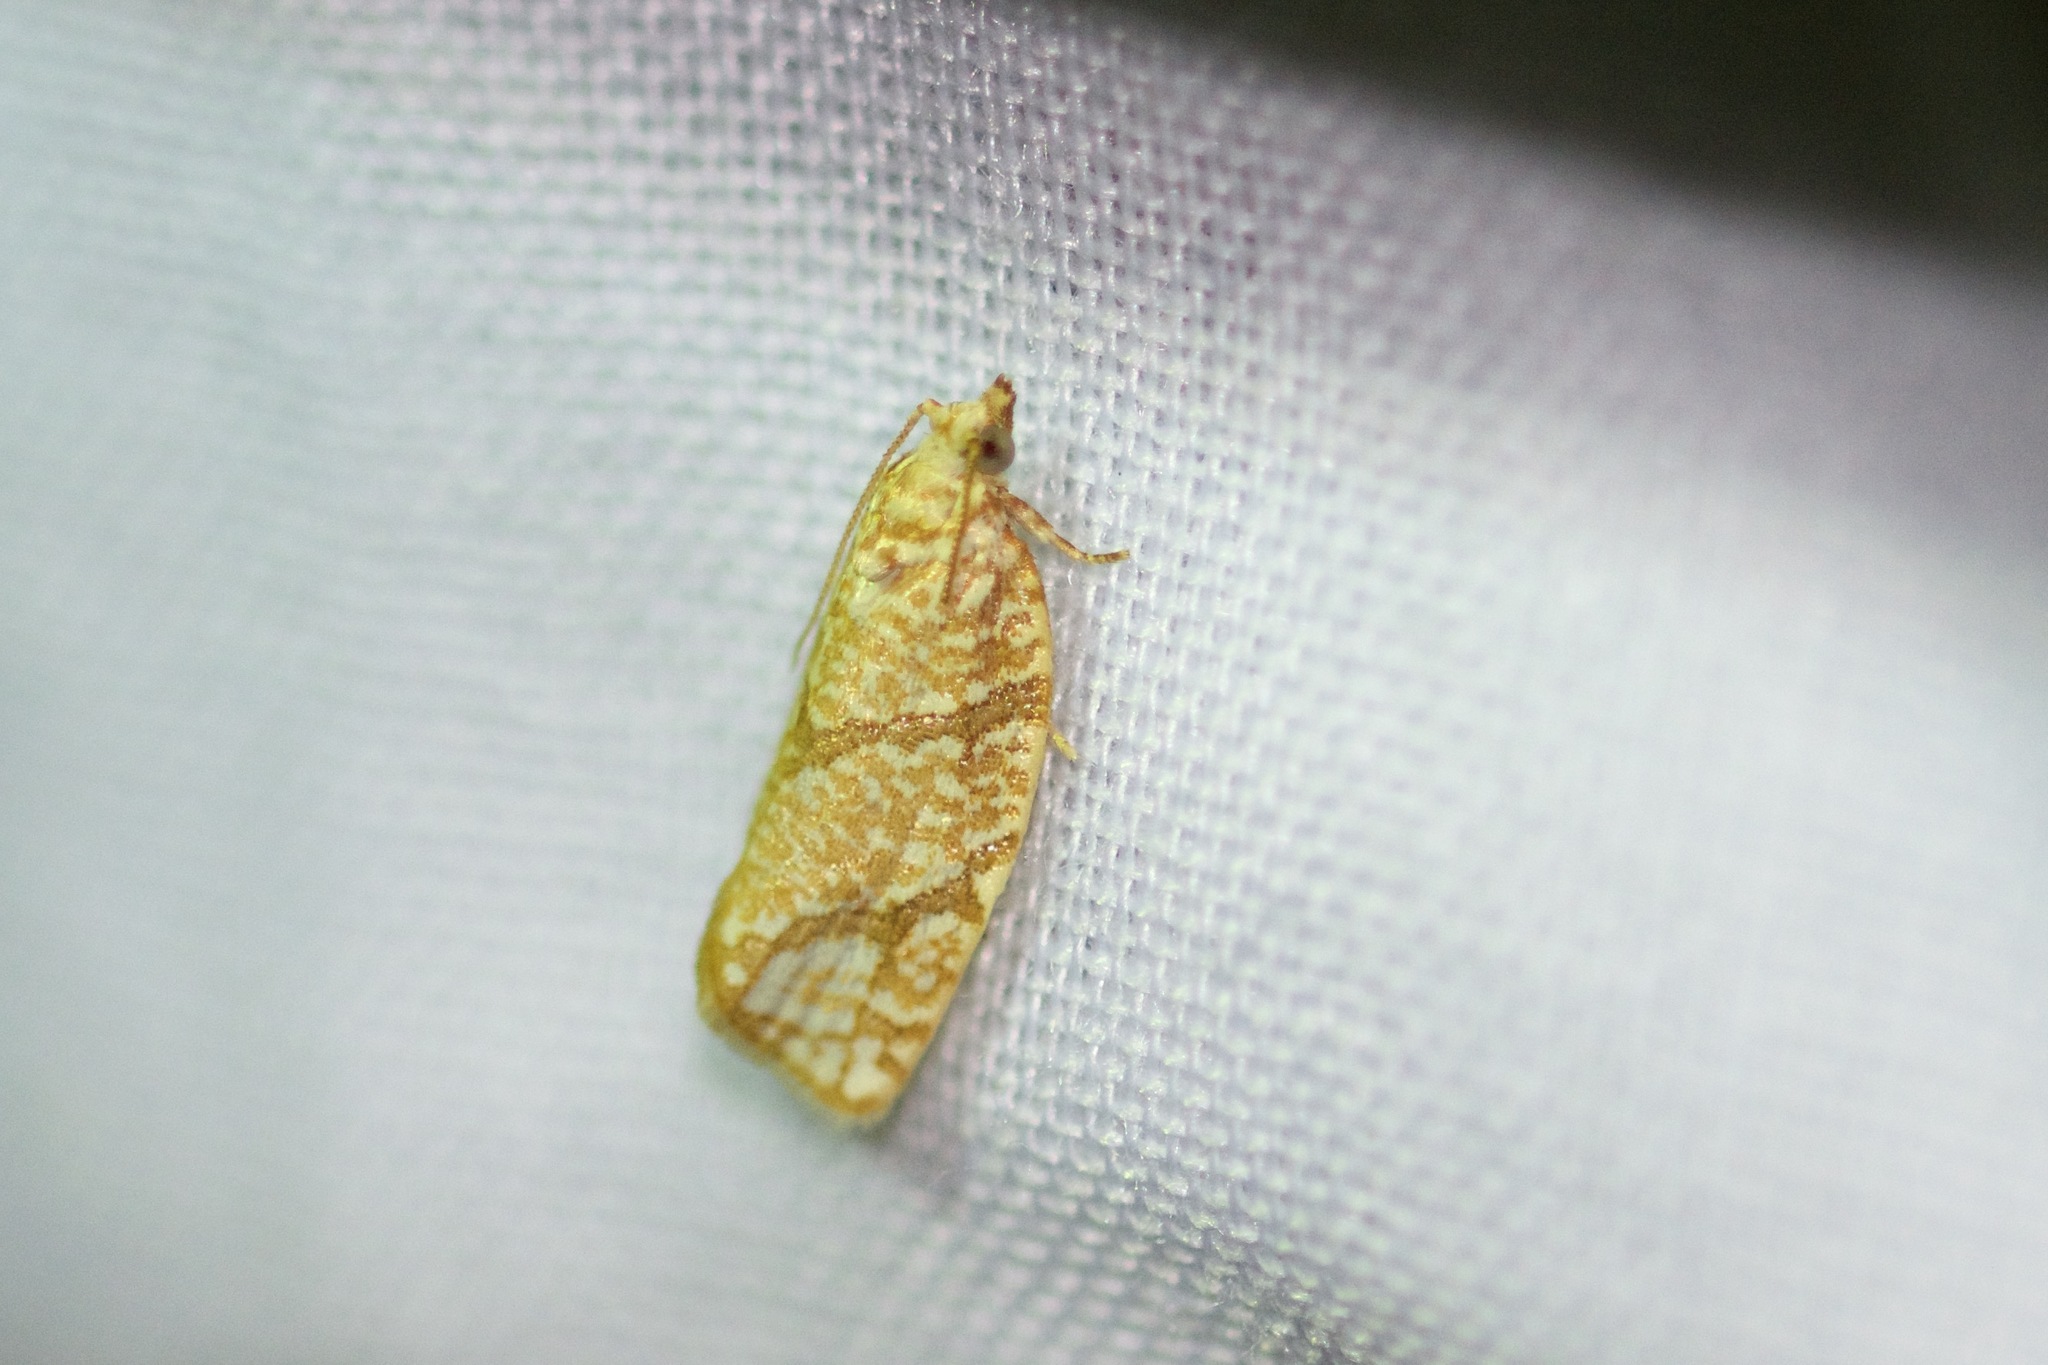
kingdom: Animalia
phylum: Arthropoda
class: Insecta
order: Lepidoptera
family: Tortricidae
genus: Argyrotaenia
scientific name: Argyrotaenia quercifoliana
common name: Yellow-winged oak leafroller moth
